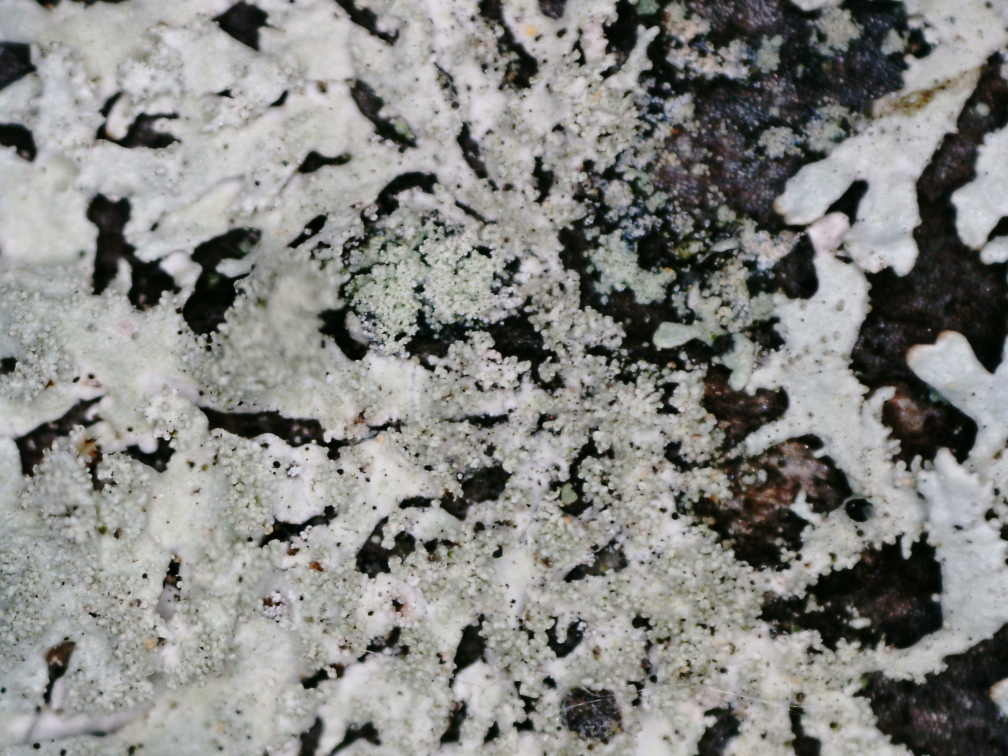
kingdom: Fungi
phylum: Ascomycota
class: Lecanoromycetes
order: Lecanorales
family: Parmeliaceae
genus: Imshaugia
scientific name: Imshaugia aleurites
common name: Salted starburst lichen
